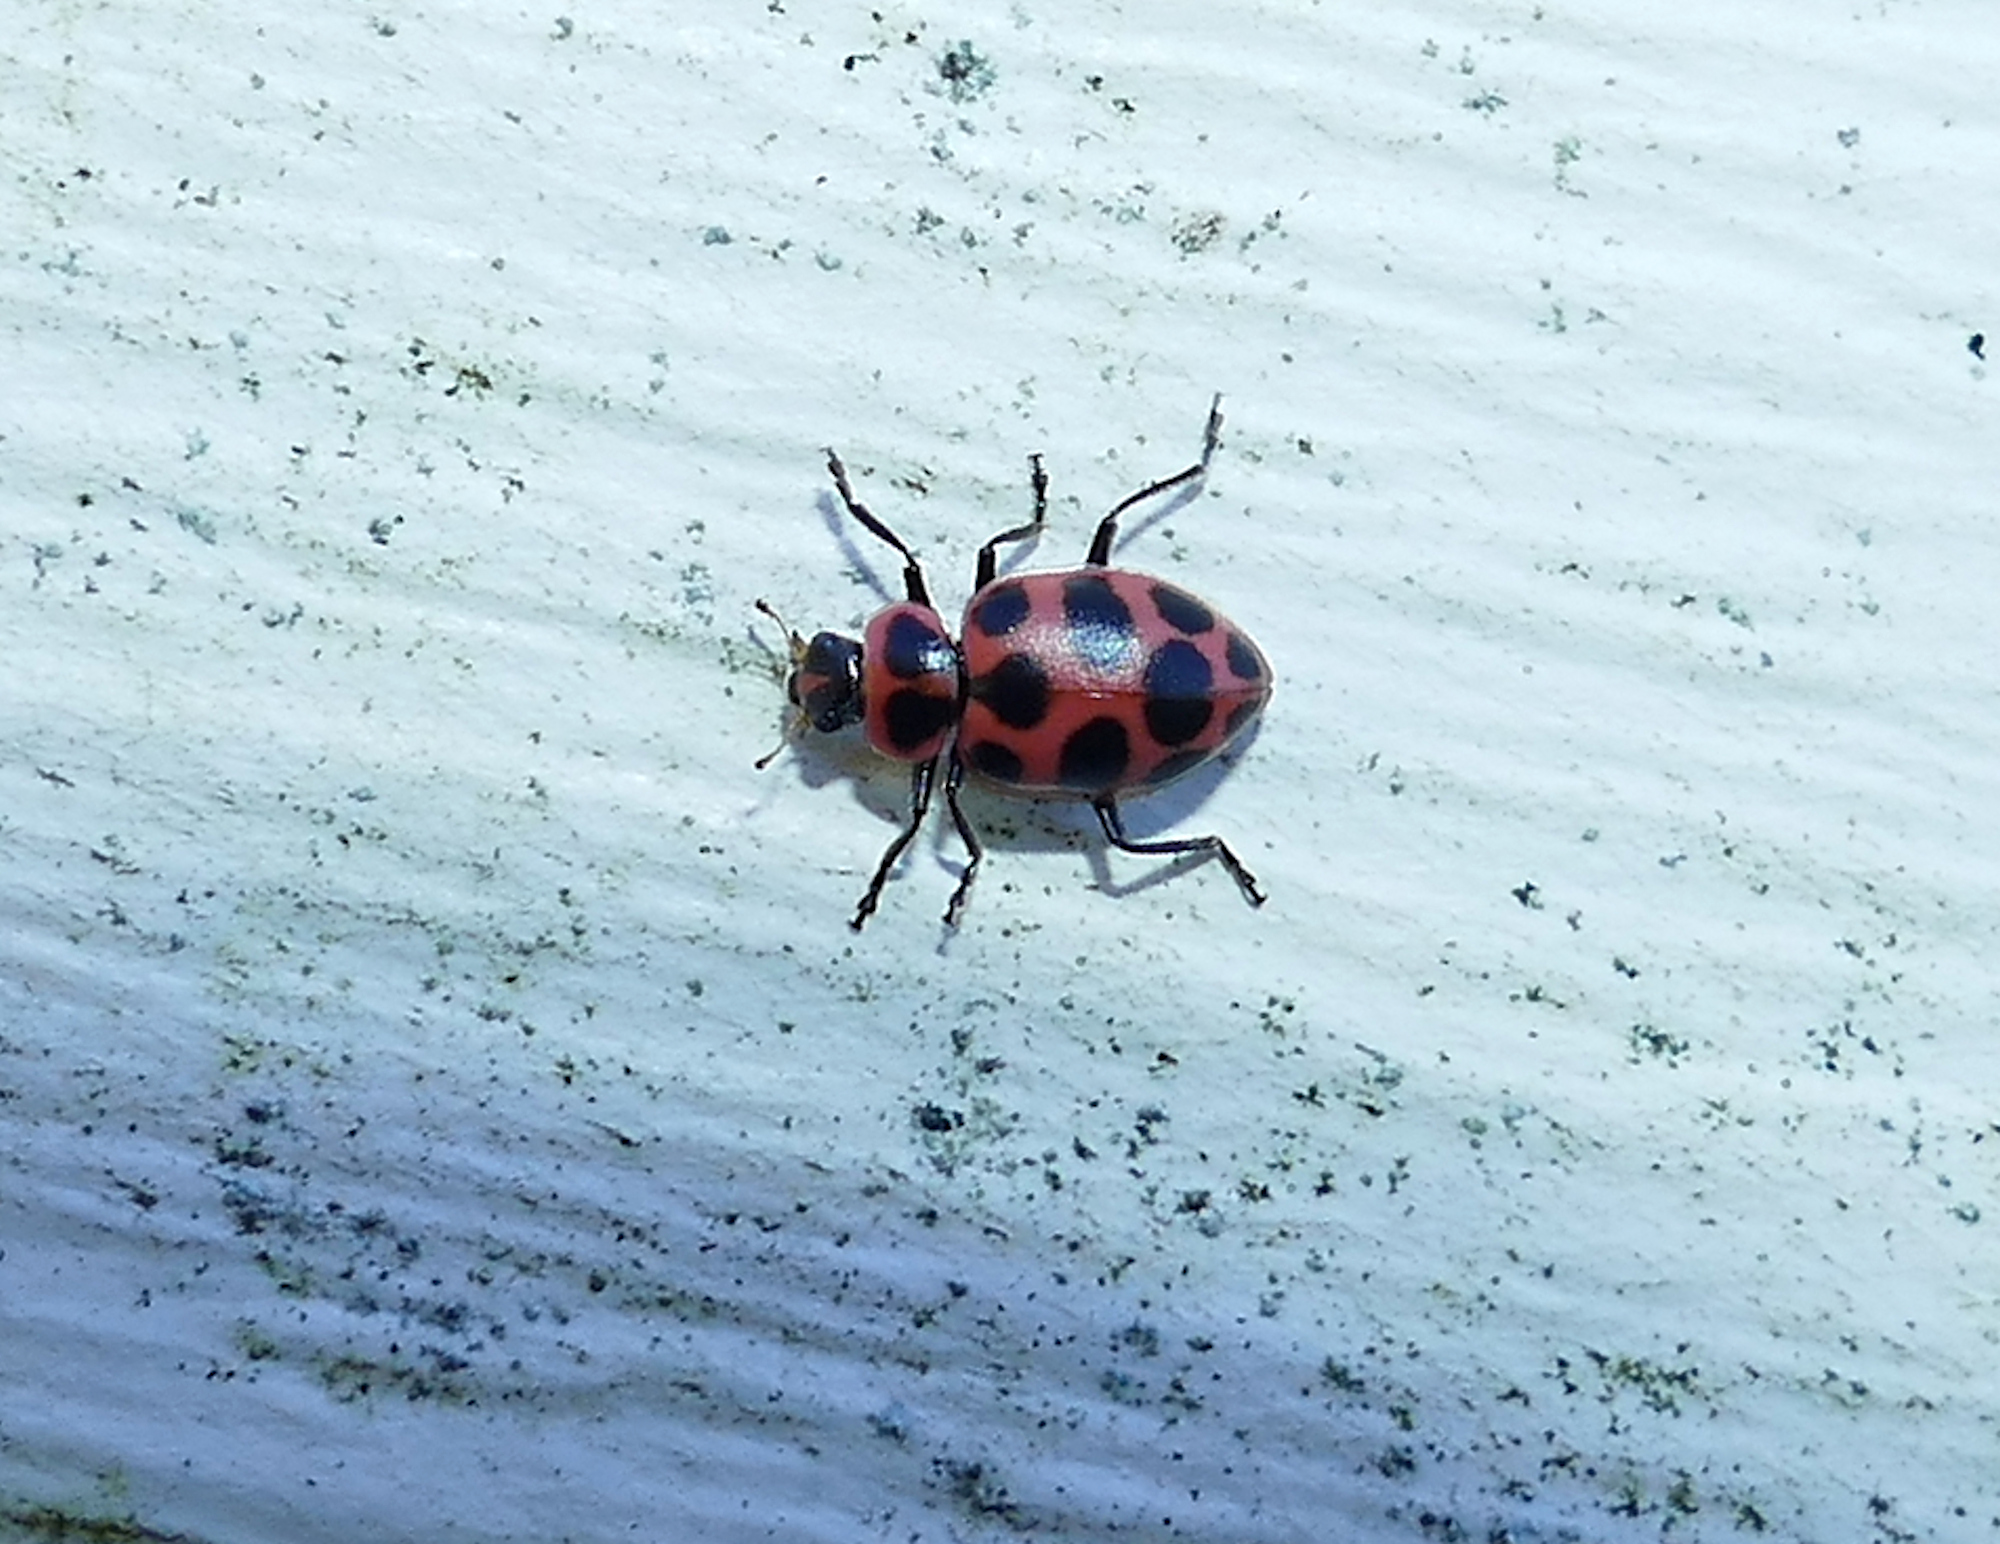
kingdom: Animalia
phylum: Arthropoda
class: Insecta
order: Coleoptera
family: Coccinellidae
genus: Coleomegilla
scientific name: Coleomegilla maculata
